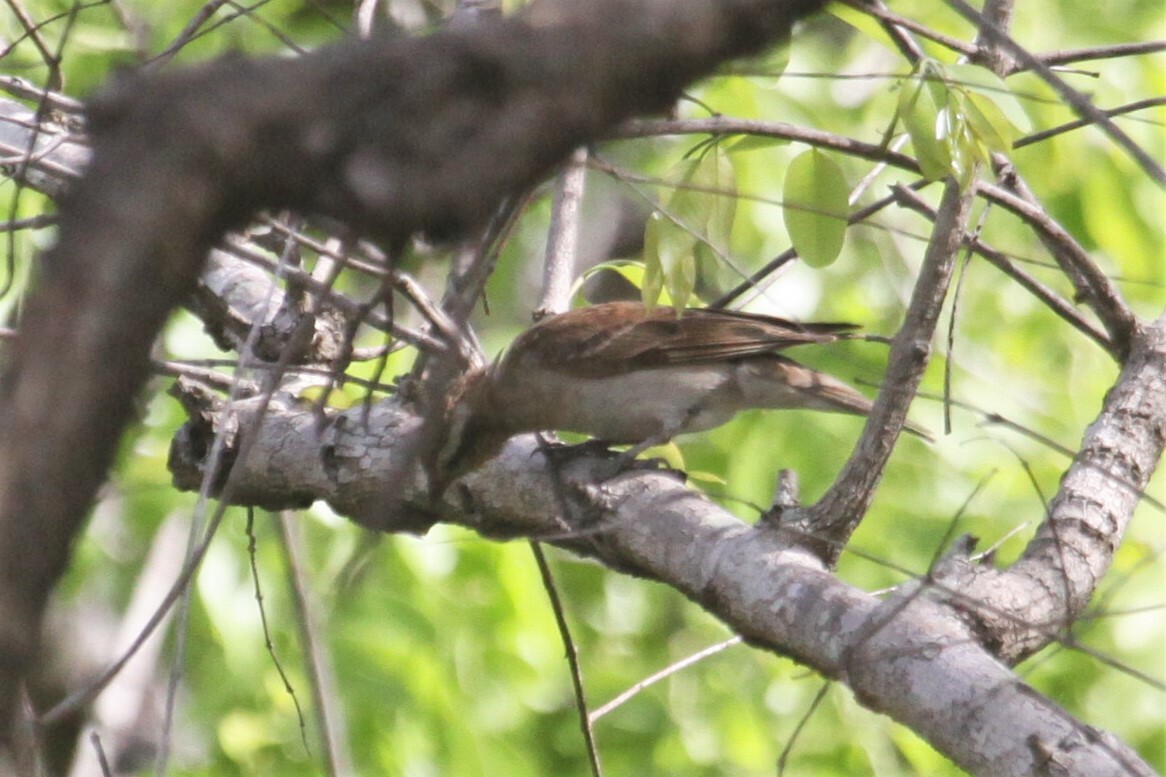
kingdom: Animalia
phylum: Chordata
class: Aves
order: Passeriformes
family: Passeridae
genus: Gymnoris
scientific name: Gymnoris superciliaris
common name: Yellow-throated petronia
